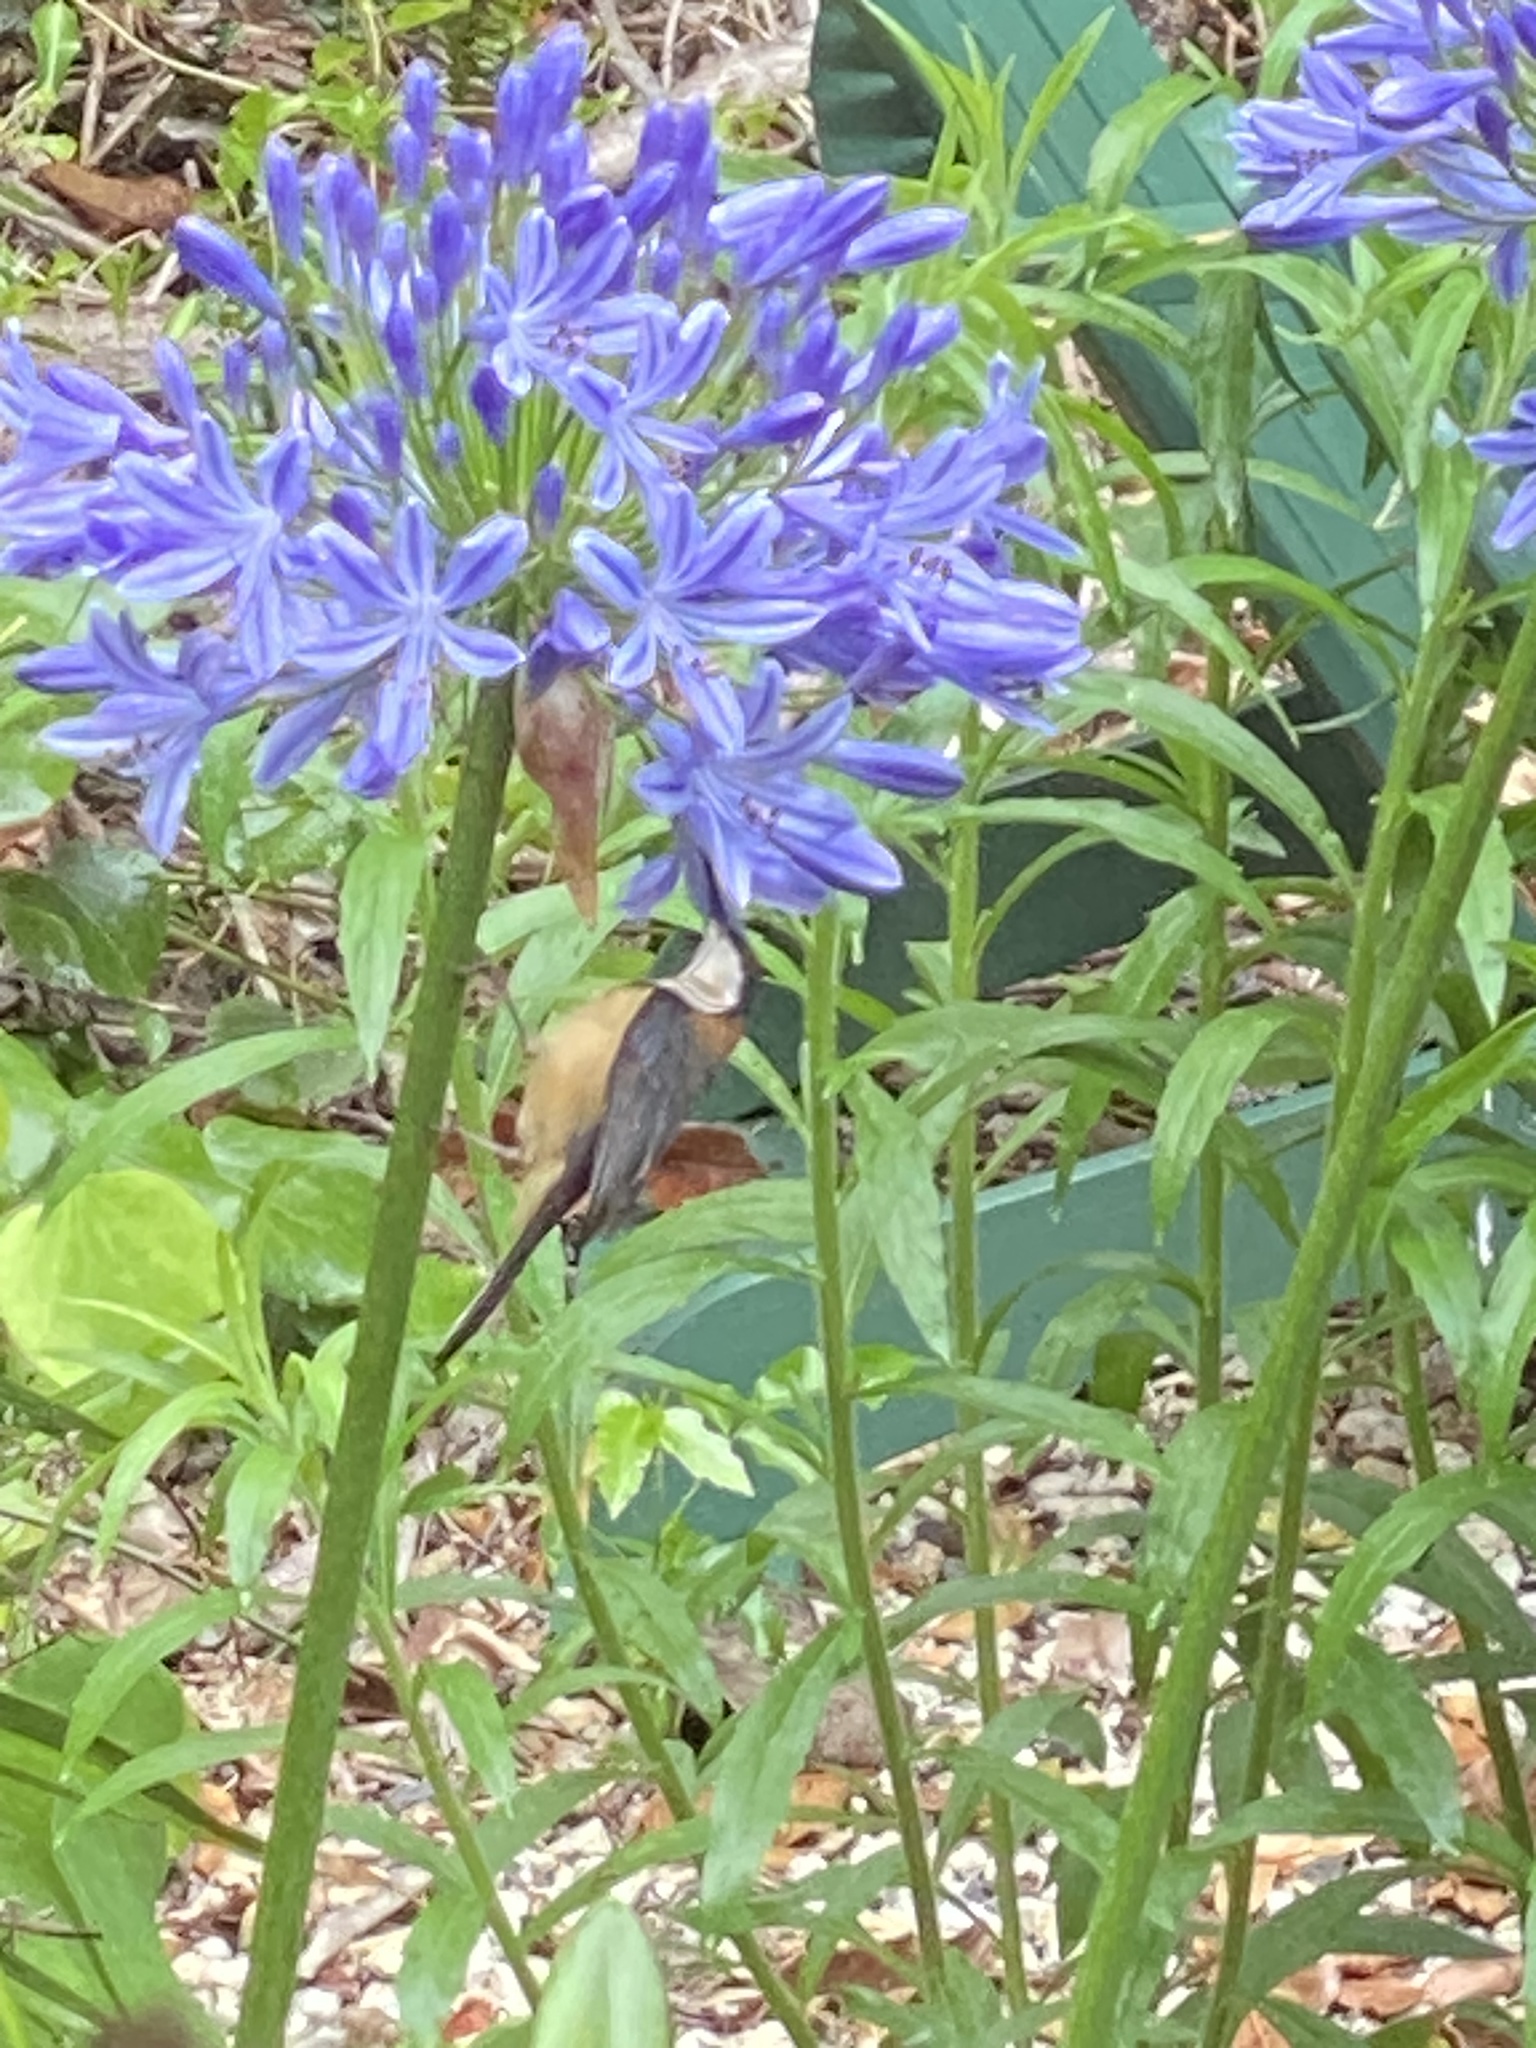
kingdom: Animalia
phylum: Chordata
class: Aves
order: Passeriformes
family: Meliphagidae
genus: Acanthorhynchus
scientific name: Acanthorhynchus tenuirostris
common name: Eastern spinebill
